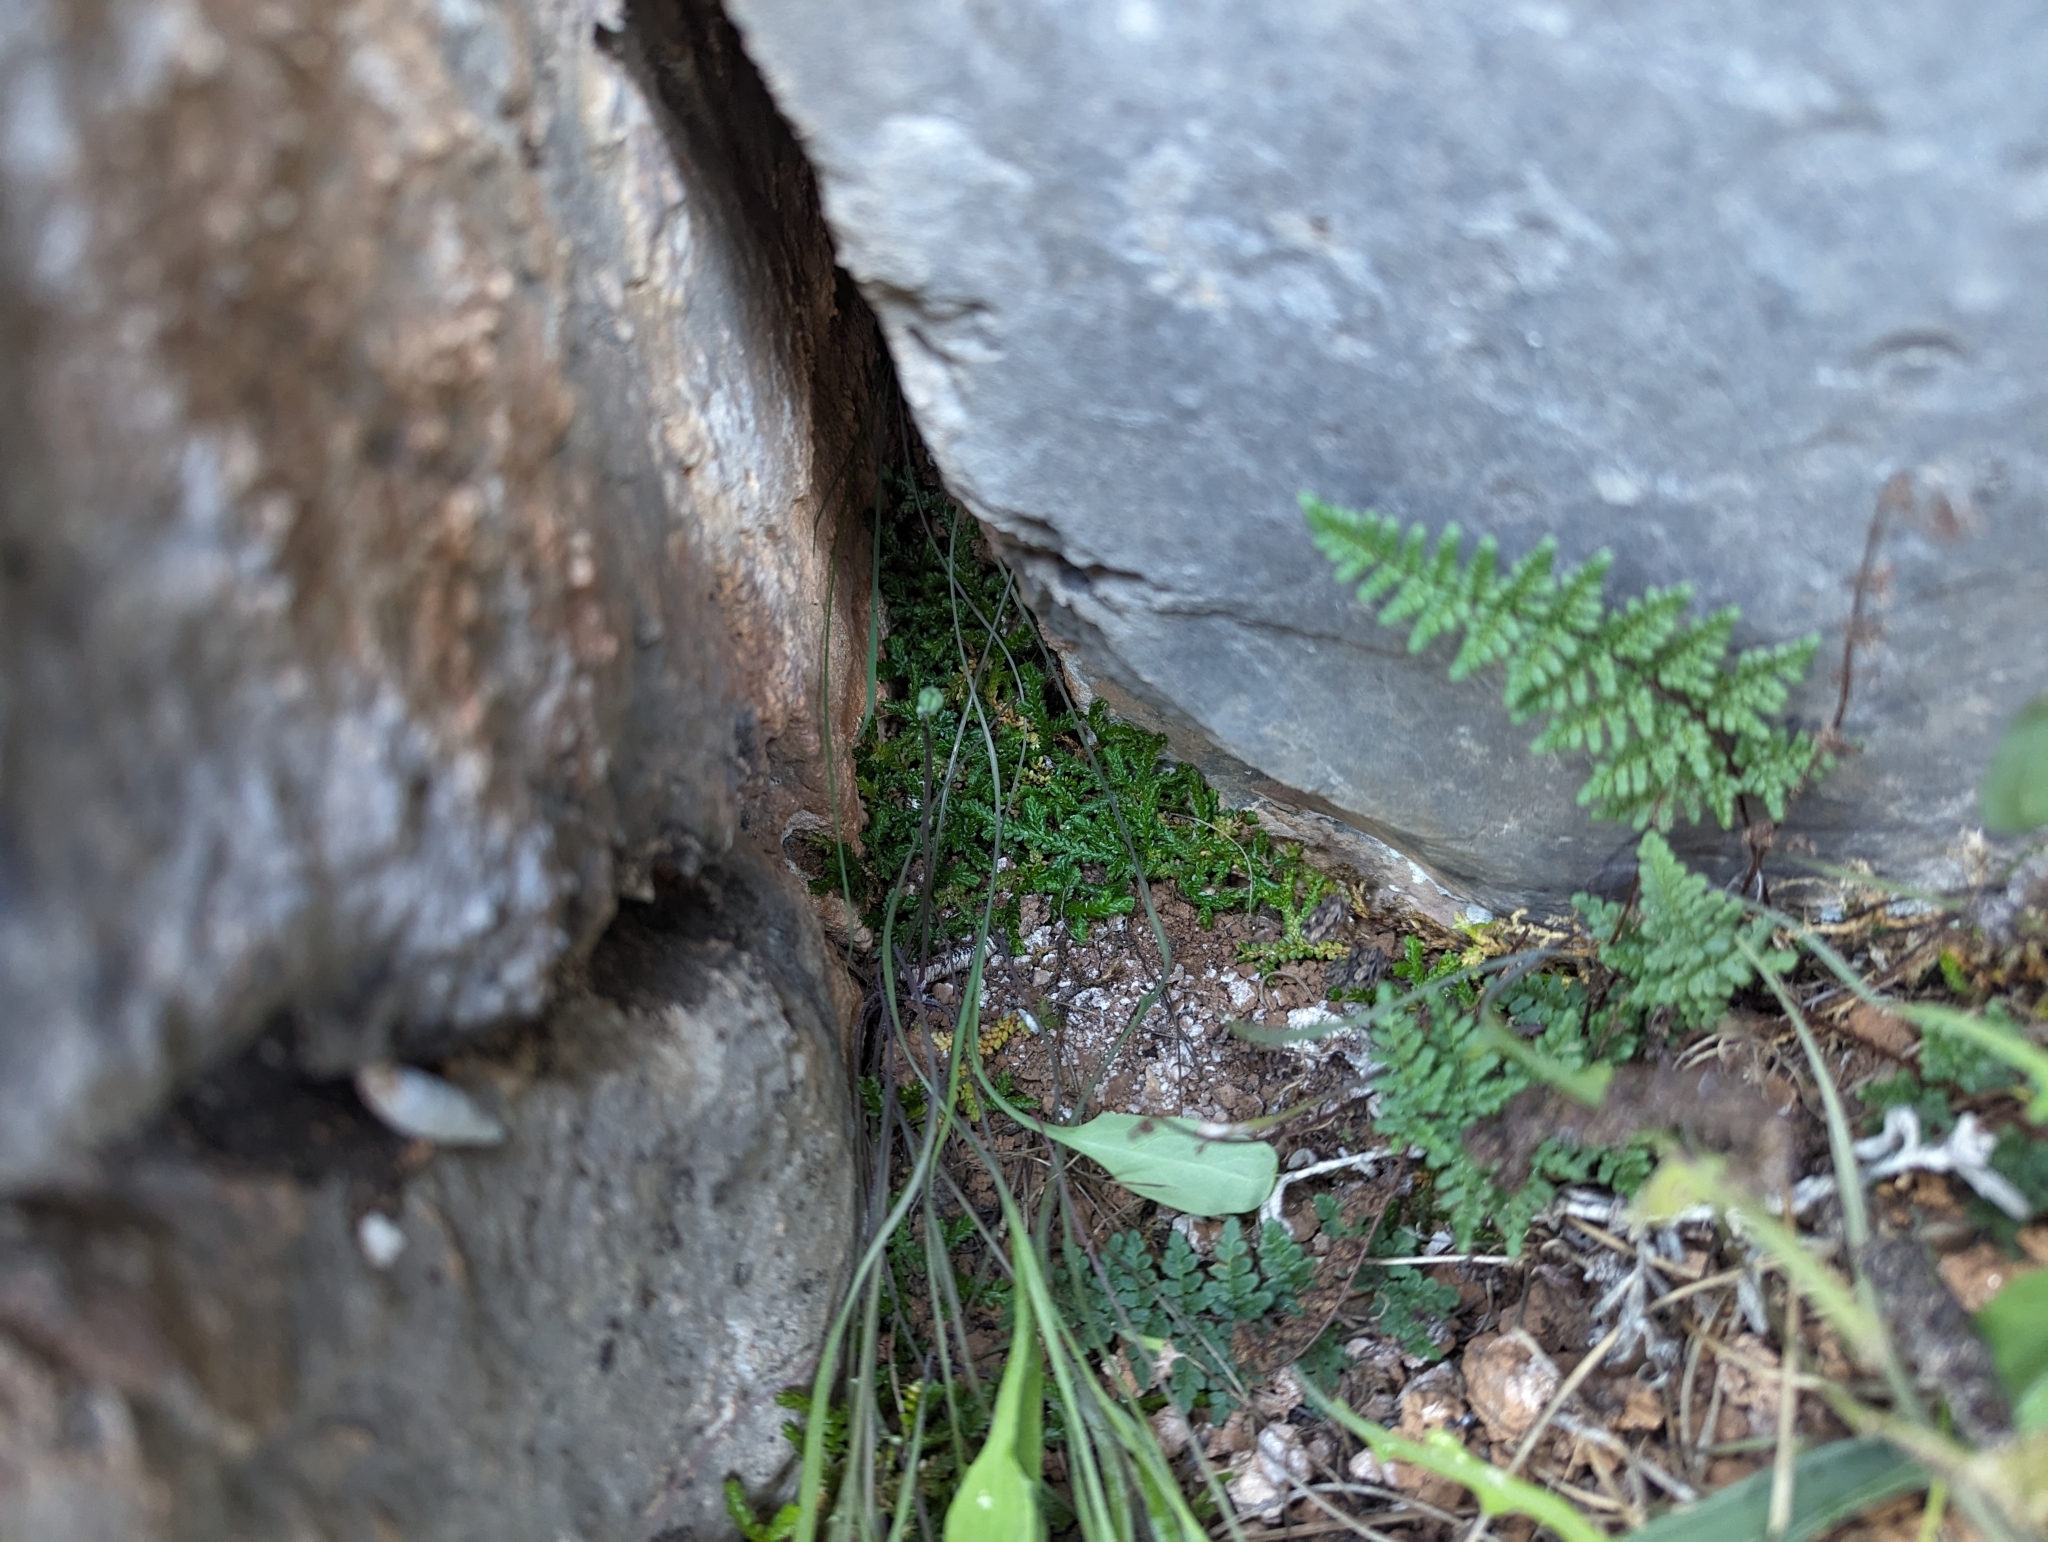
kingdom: Plantae
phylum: Tracheophyta
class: Lycopodiopsida
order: Selaginellales
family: Selaginellaceae
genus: Selaginella
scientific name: Selaginella denticulata
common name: Toothed-leaved clubmoss
